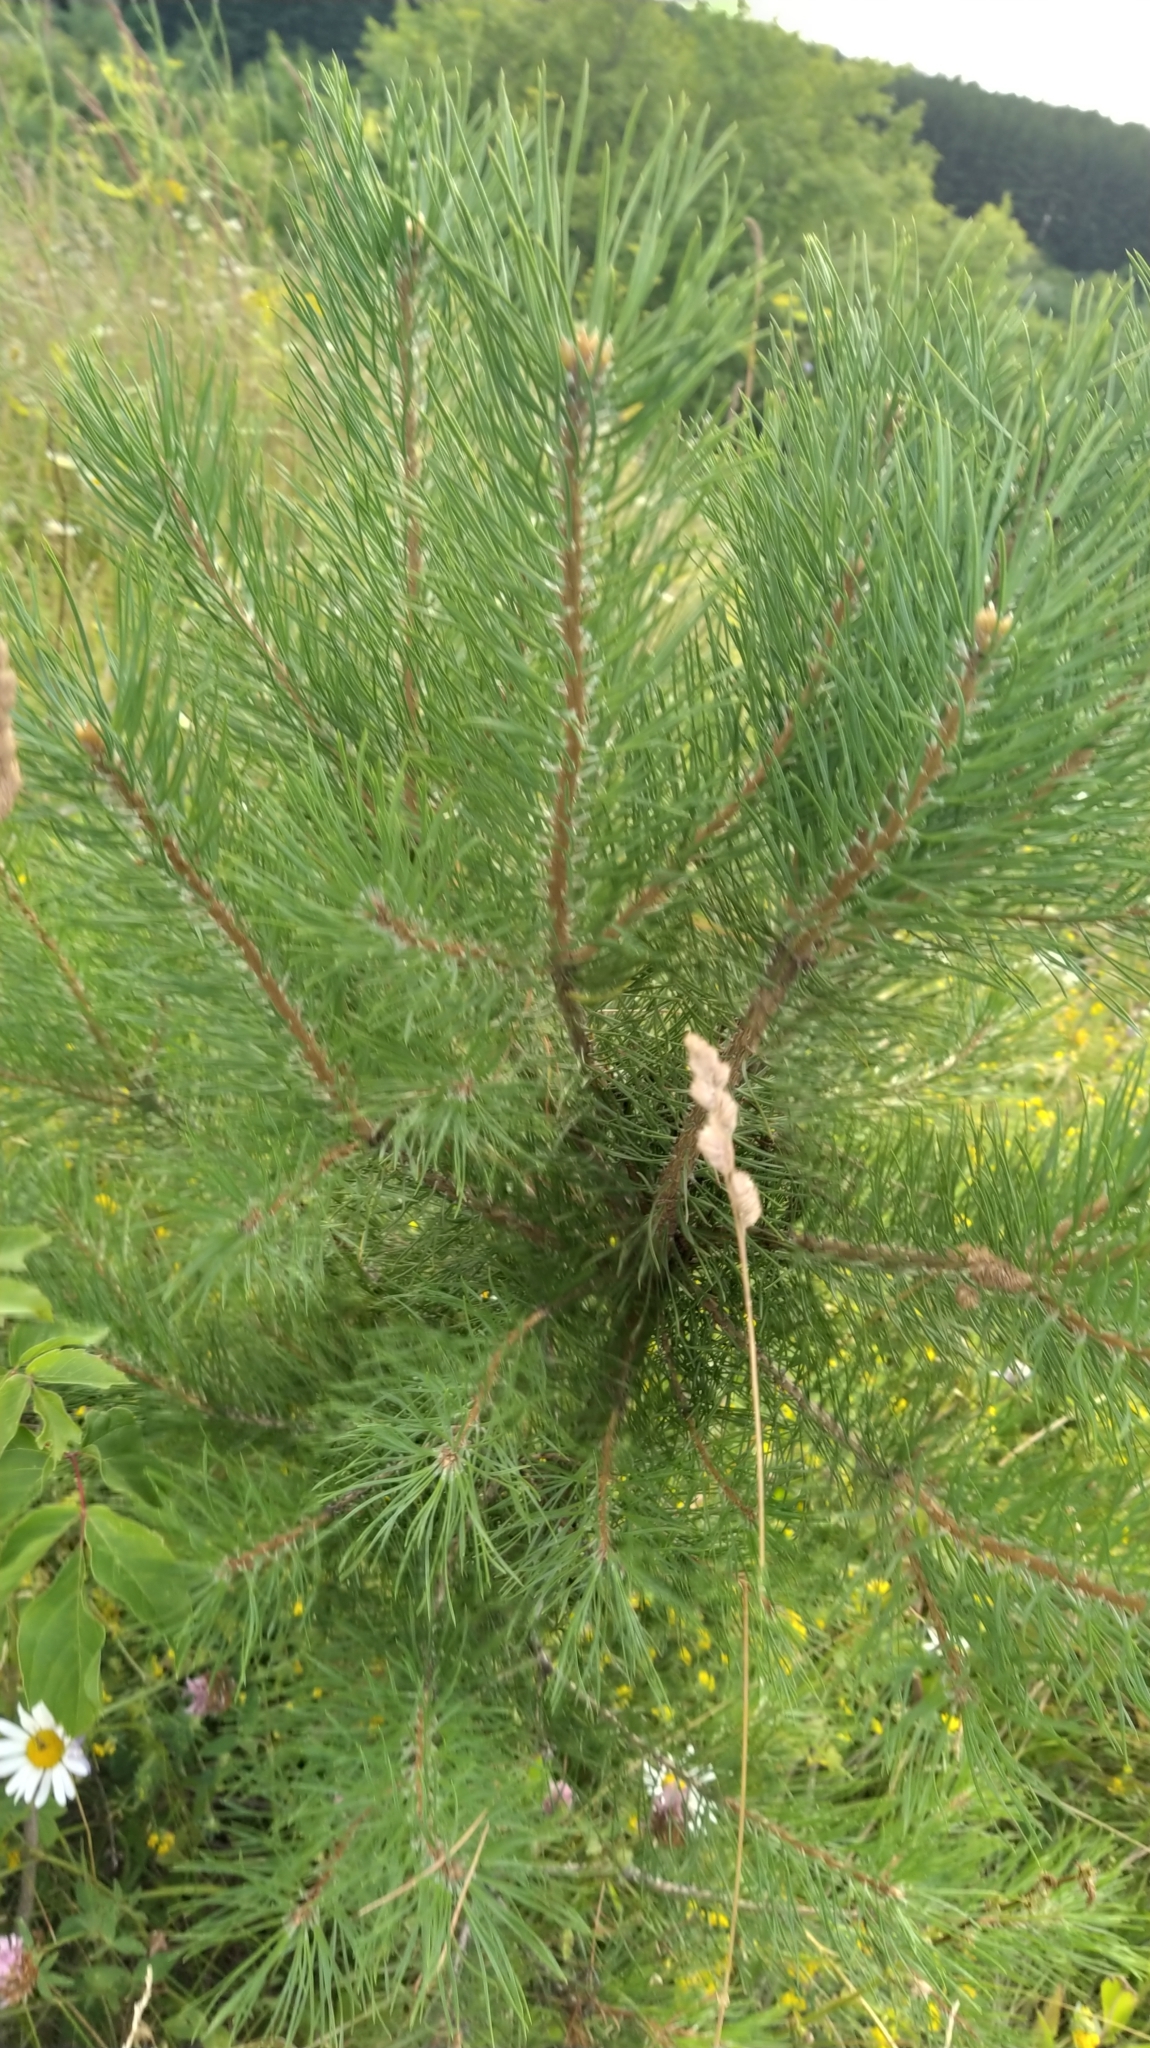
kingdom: Plantae
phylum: Tracheophyta
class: Pinopsida
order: Pinales
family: Pinaceae
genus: Pinus
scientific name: Pinus sylvestris
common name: Scots pine
